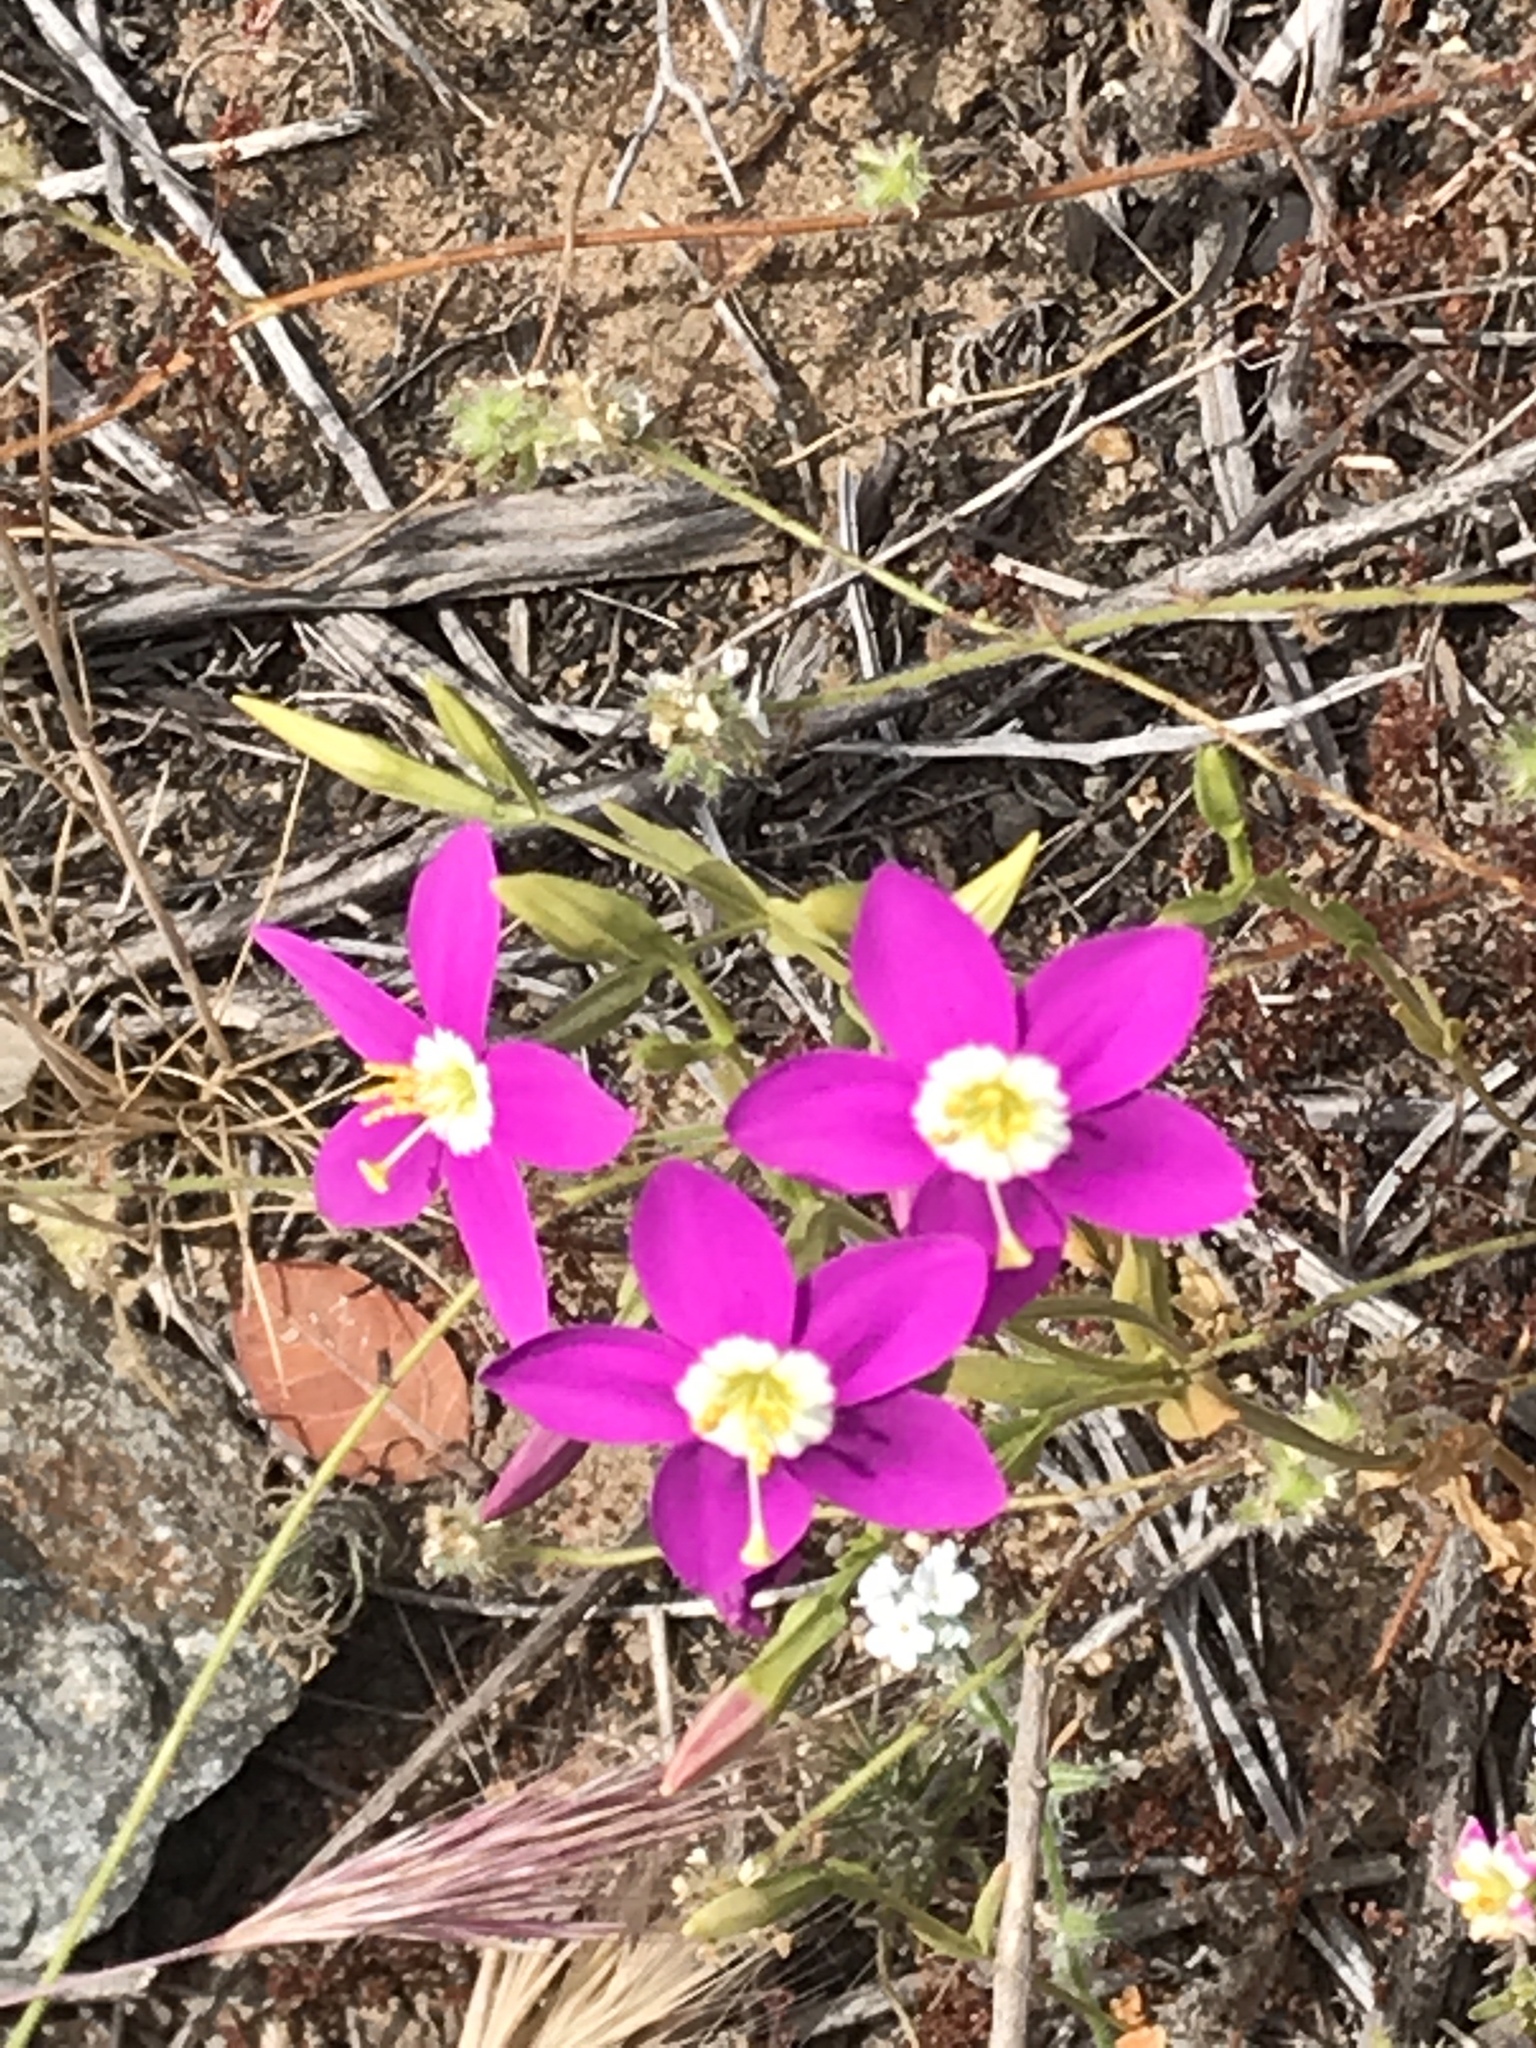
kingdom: Plantae
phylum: Tracheophyta
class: Magnoliopsida
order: Gentianales
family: Gentianaceae
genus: Zeltnera
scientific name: Zeltnera venusta
